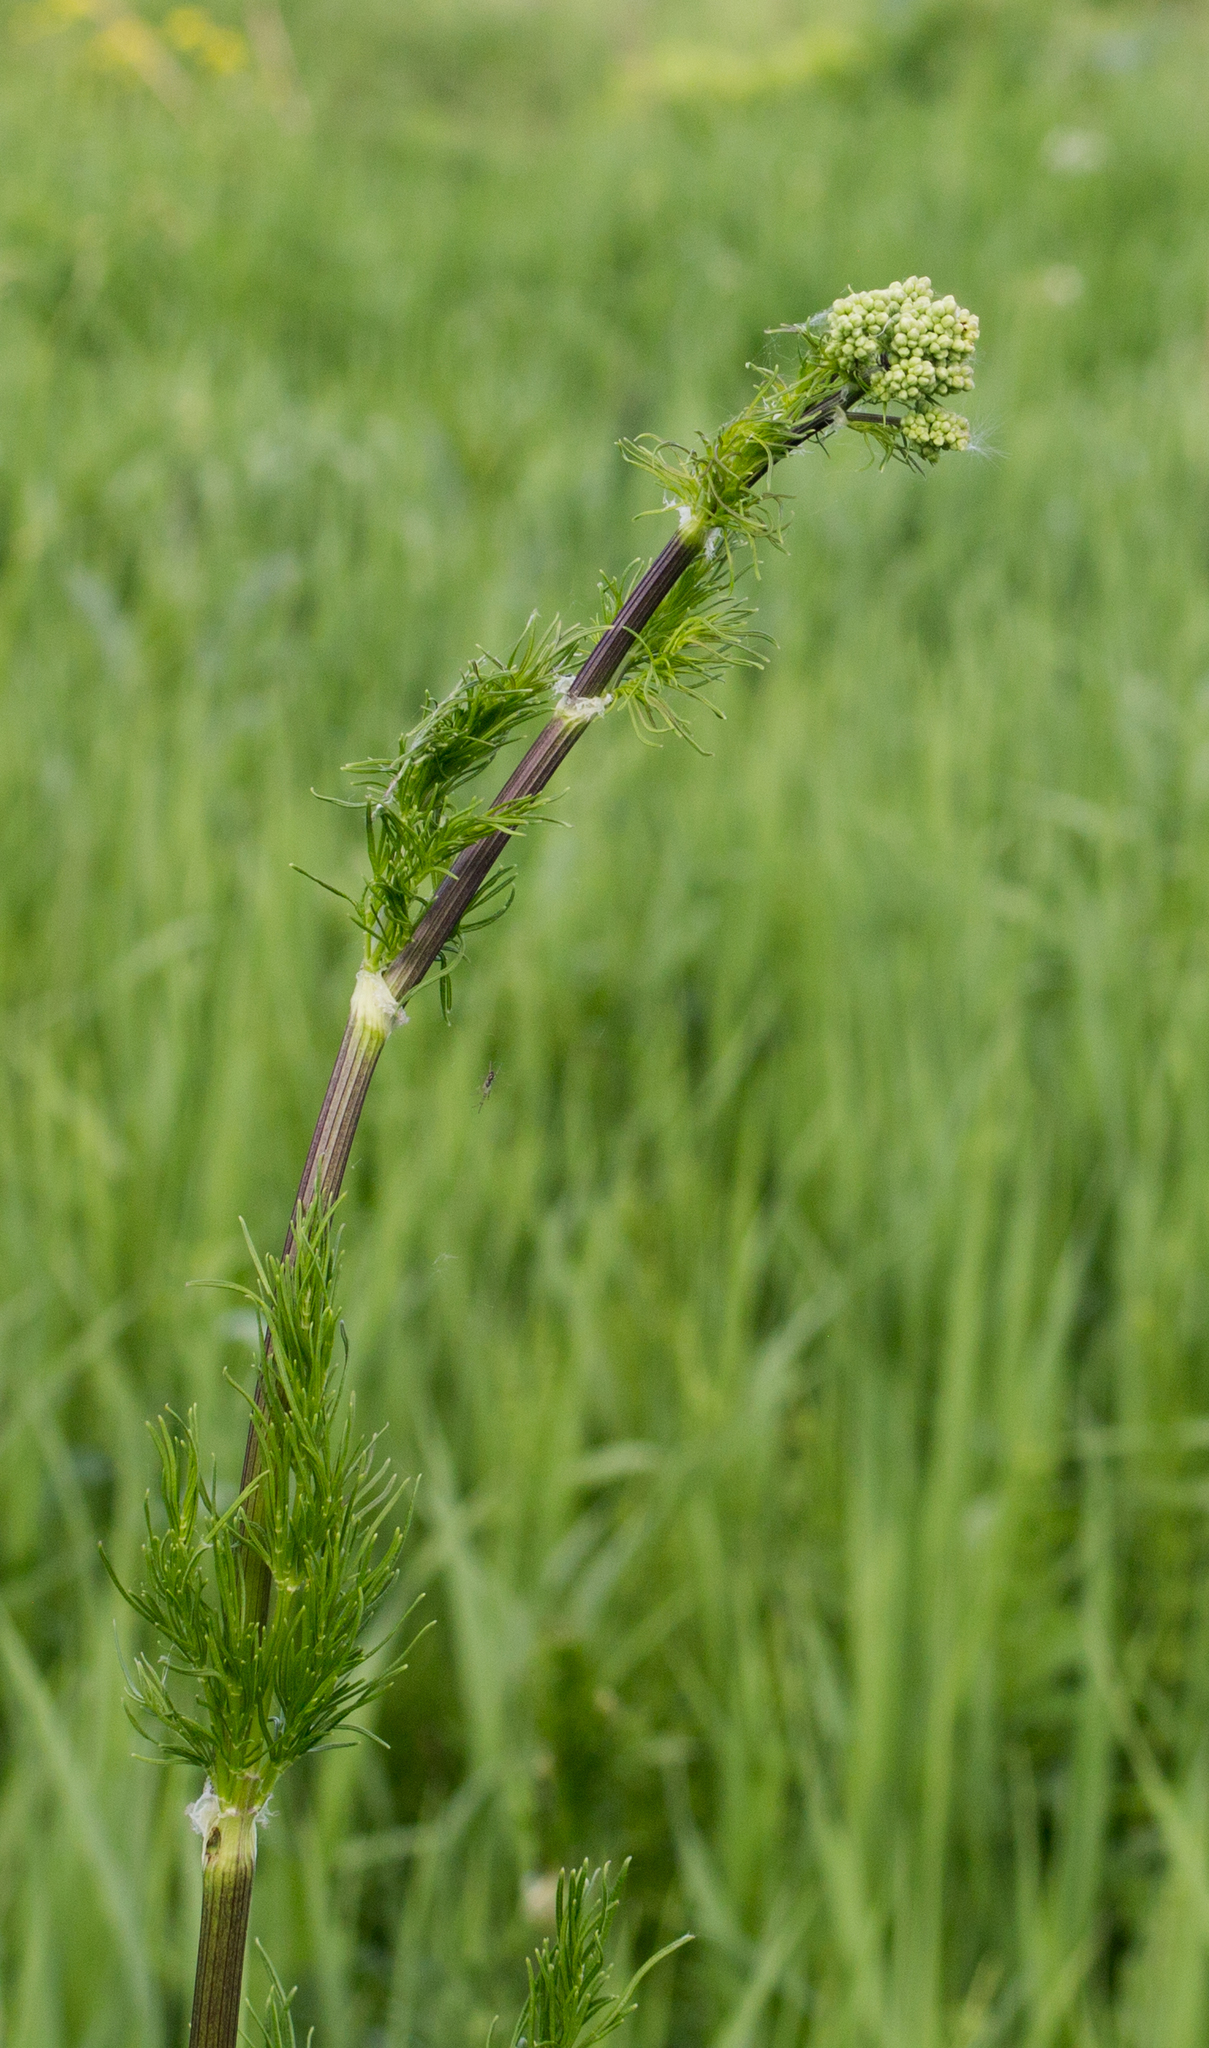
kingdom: Plantae
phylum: Tracheophyta
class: Magnoliopsida
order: Ranunculales
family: Ranunculaceae
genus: Thalictrum
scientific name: Thalictrum lucidum
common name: Shining meadow-rue
